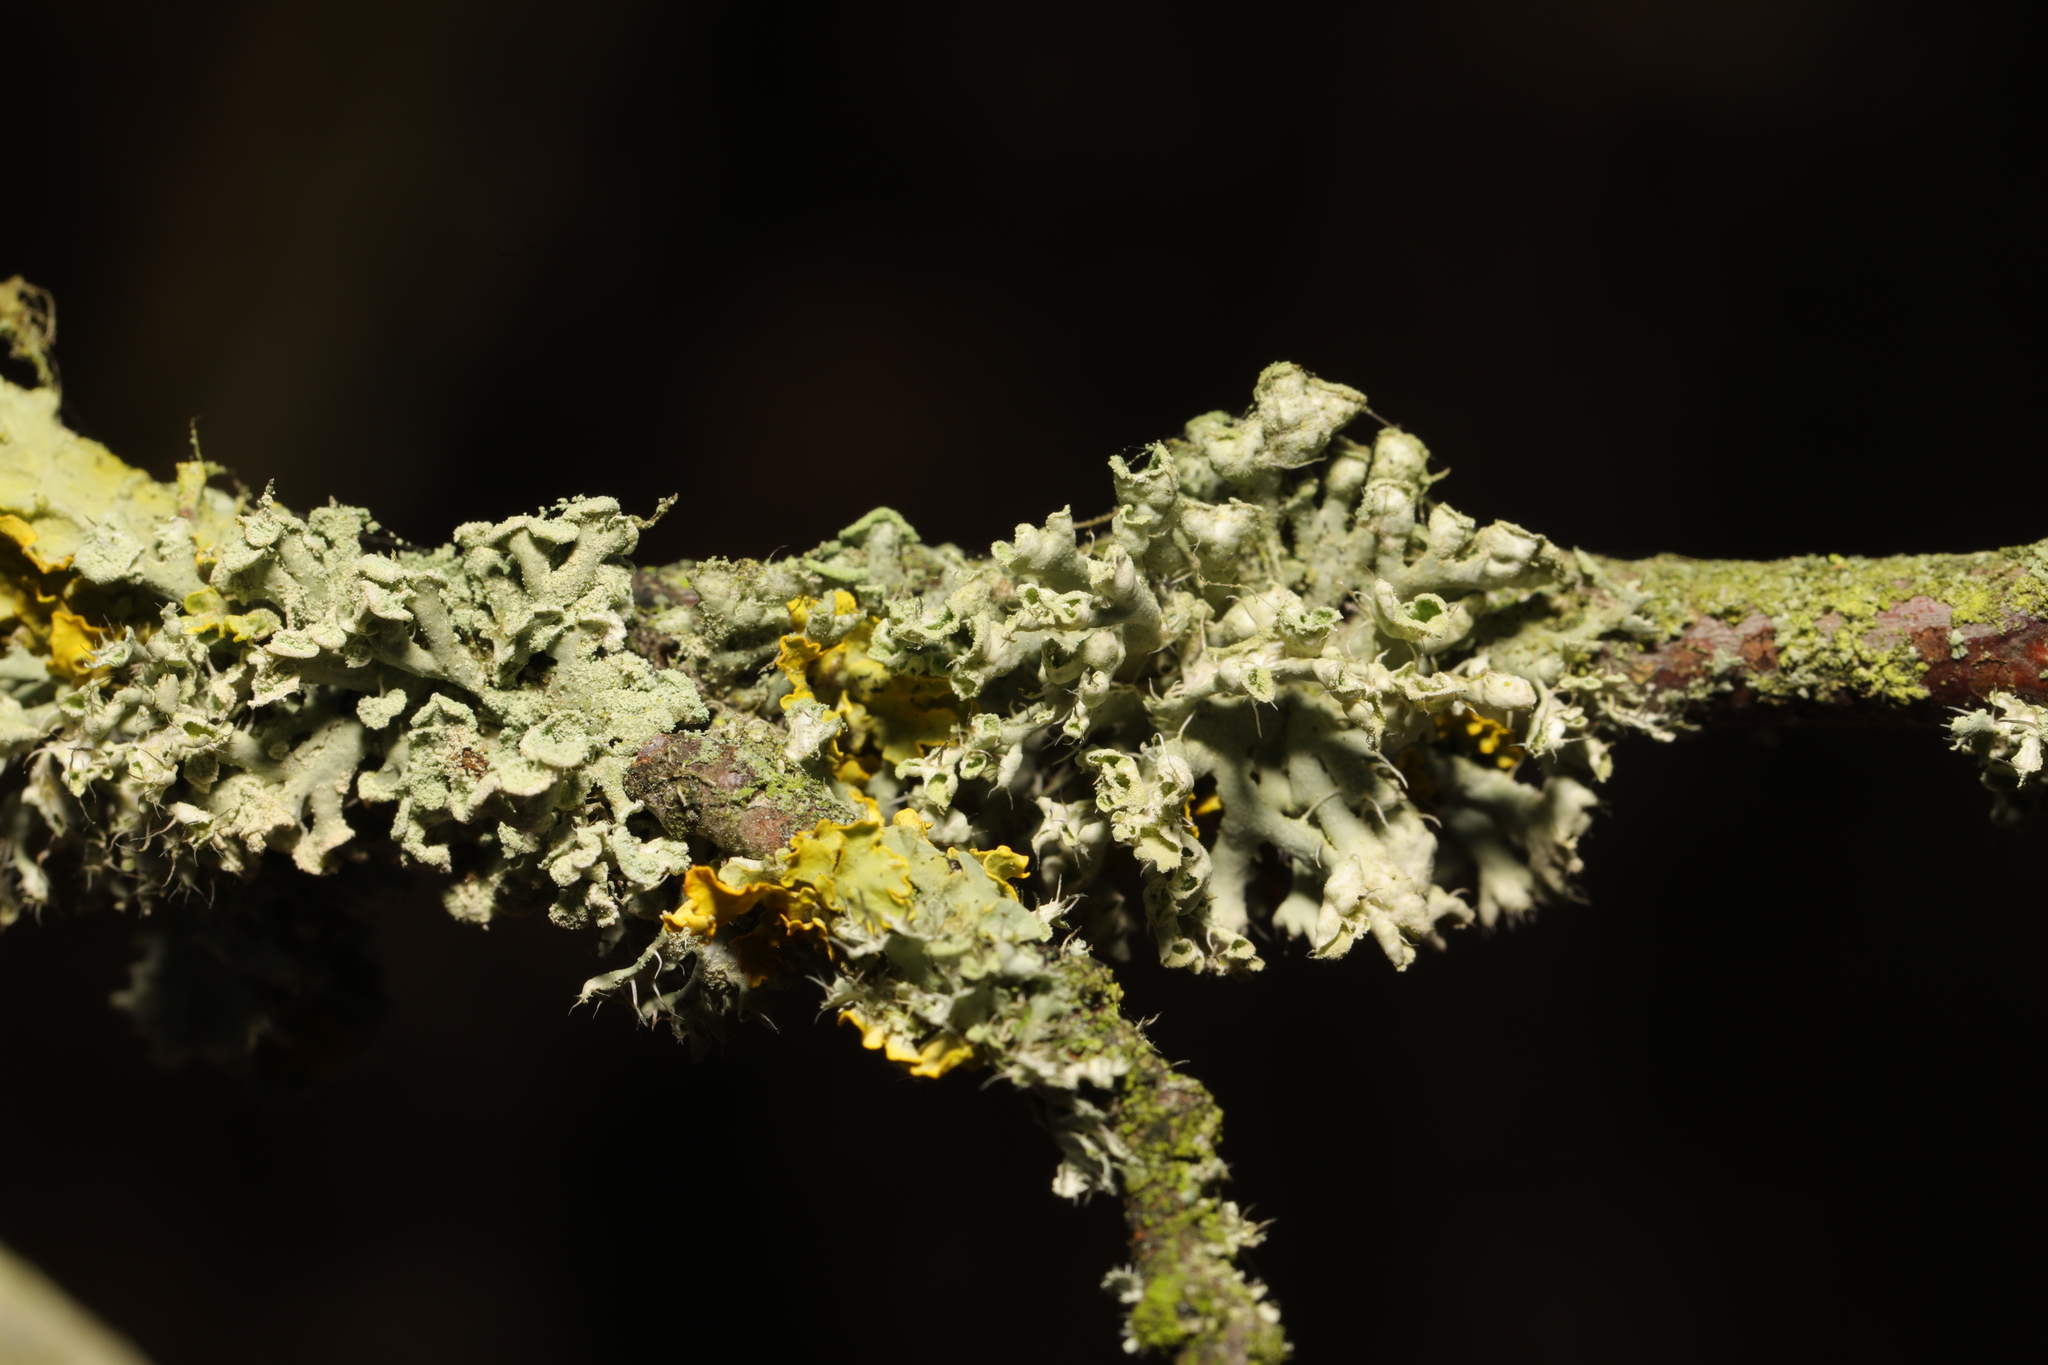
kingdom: Fungi
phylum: Ascomycota
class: Lecanoromycetes
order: Caliciales
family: Physciaceae
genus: Physcia
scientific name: Physcia adscendens
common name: Hooded rosette lichen
